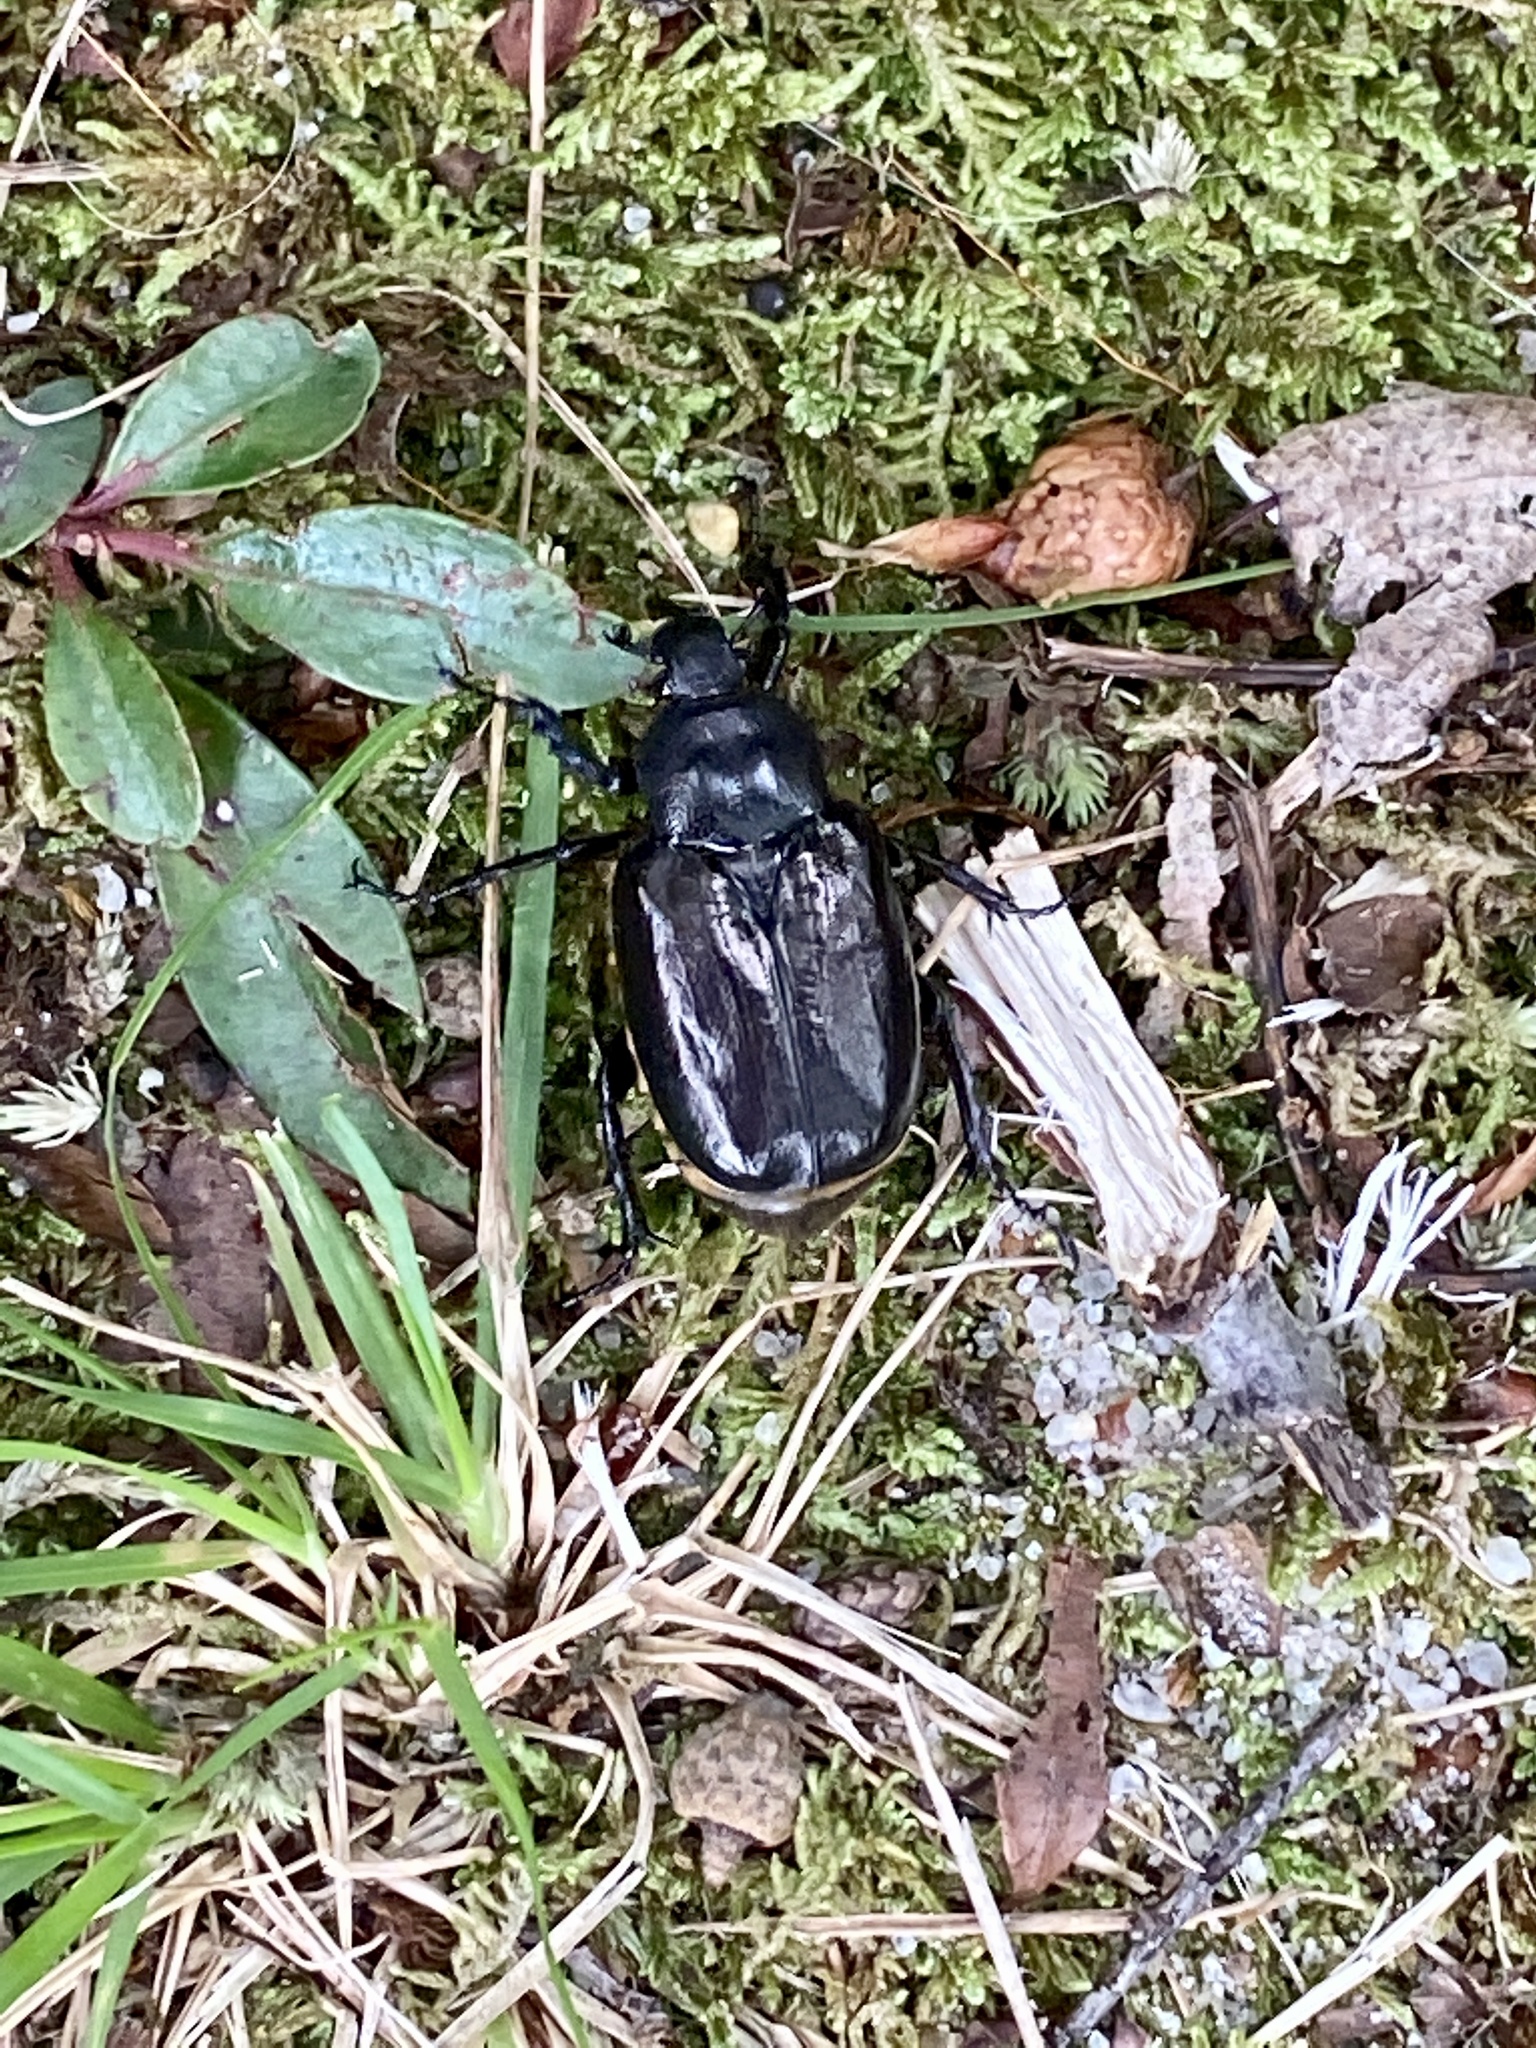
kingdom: Animalia
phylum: Arthropoda
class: Insecta
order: Coleoptera
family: Scarabaeidae
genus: Osmoderma
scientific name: Osmoderma eremicola
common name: Hermit flower beetle
